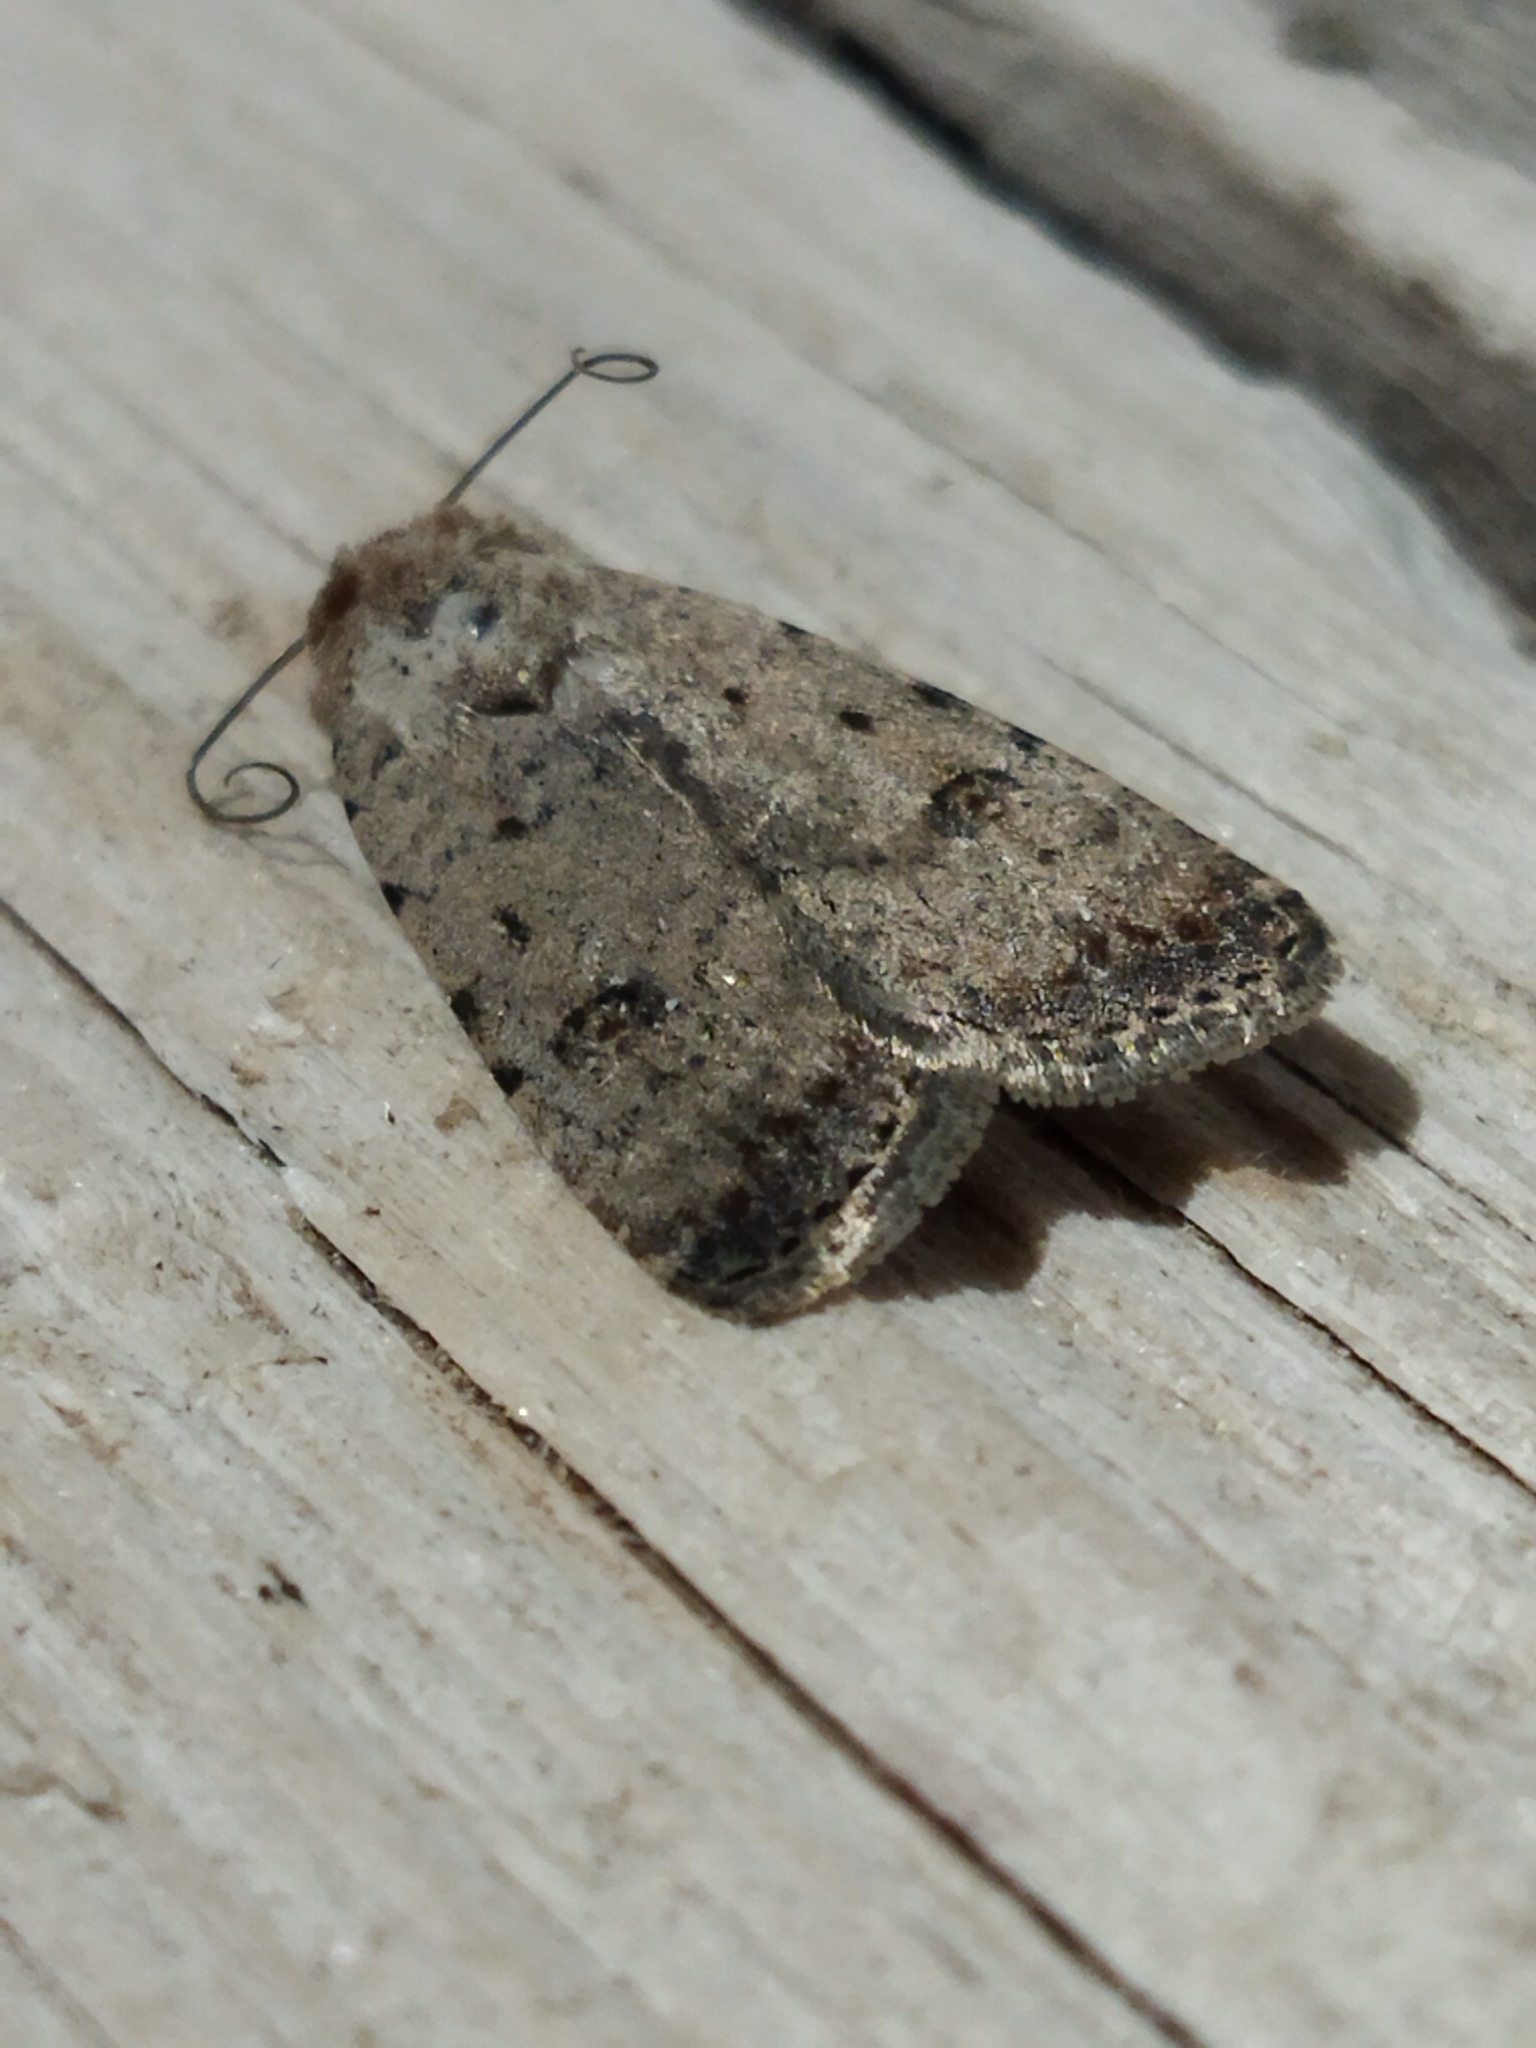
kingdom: Animalia
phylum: Arthropoda
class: Insecta
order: Lepidoptera
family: Noctuidae
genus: Caradrina
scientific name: Caradrina clavipalpis
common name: Pale mottled willow
